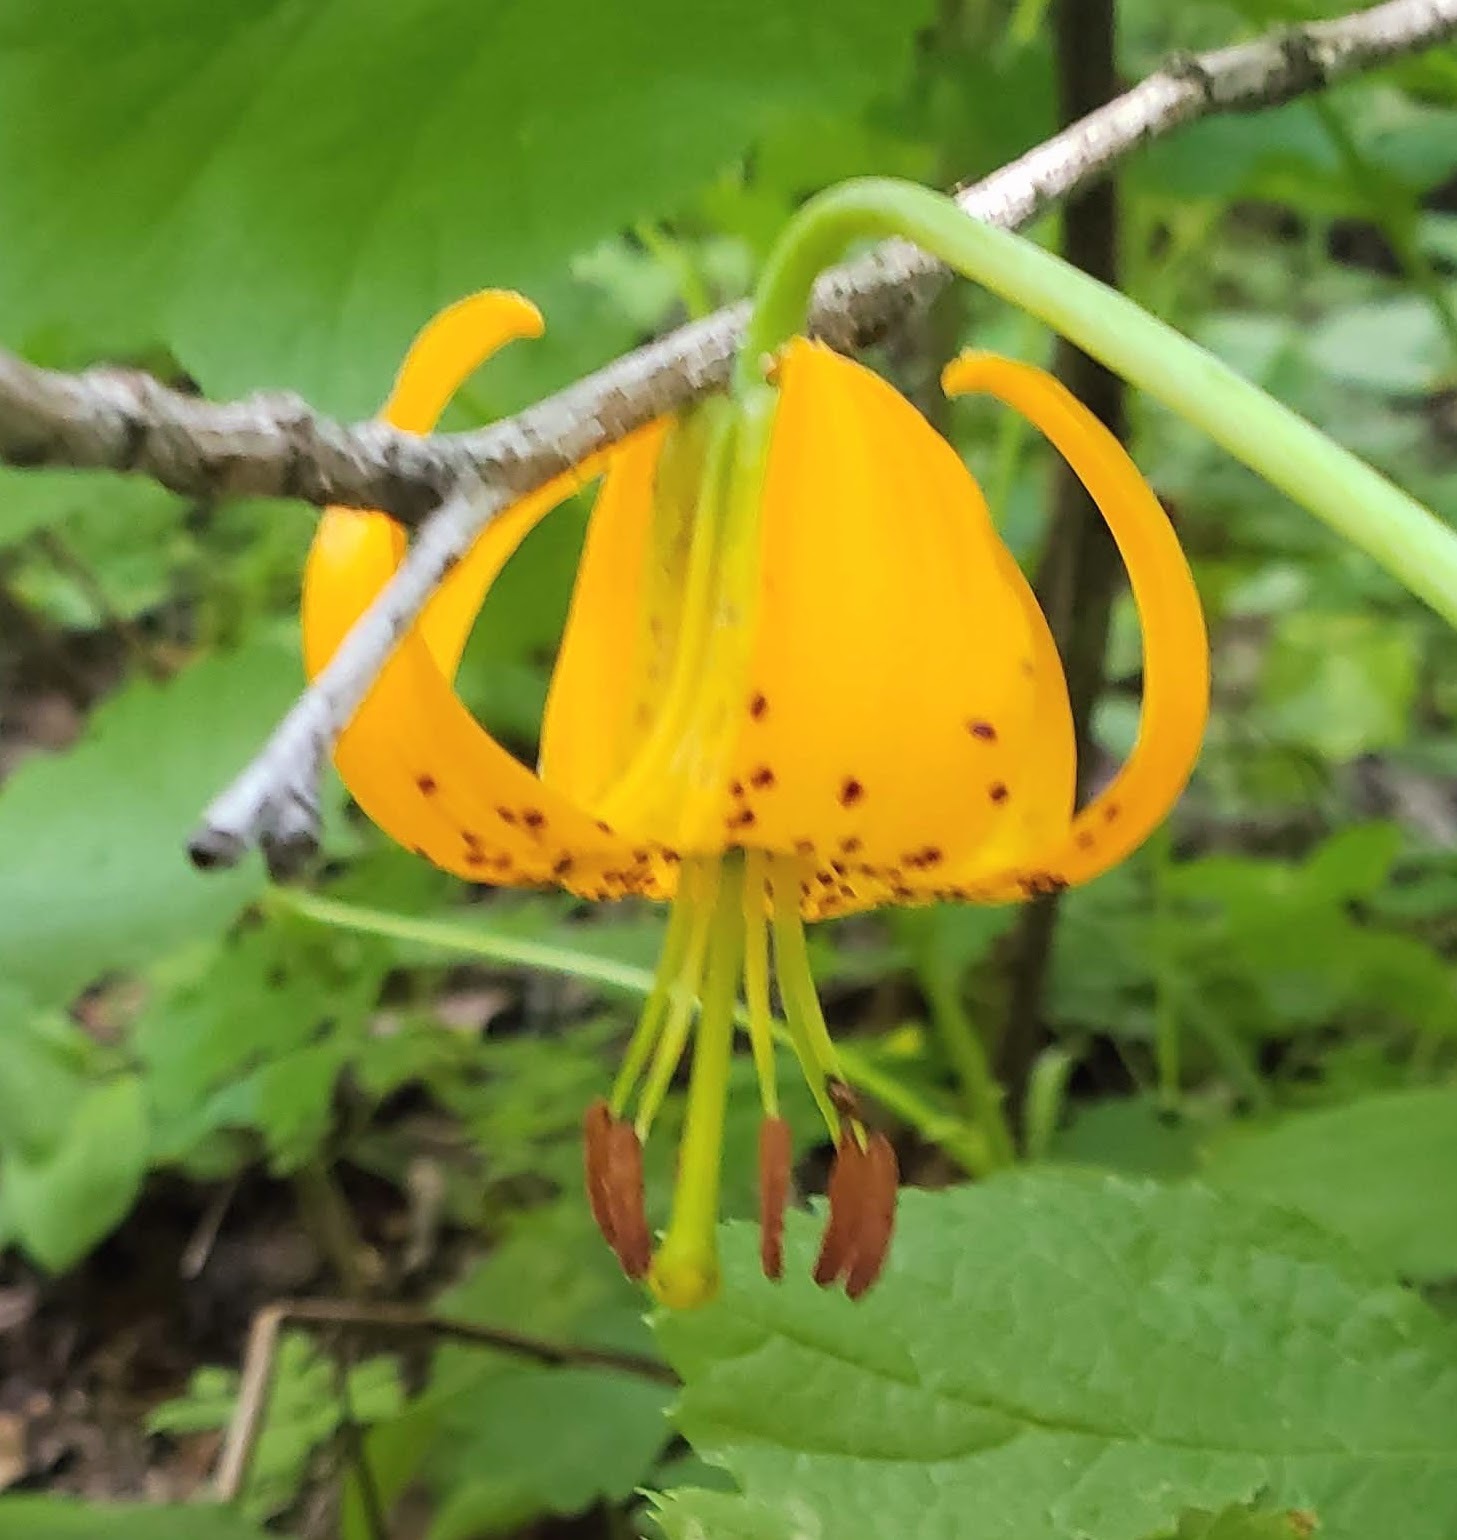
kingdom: Plantae
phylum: Tracheophyta
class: Liliopsida
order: Liliales
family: Liliaceae
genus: Lilium
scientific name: Lilium columbianum
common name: Columbia lily
